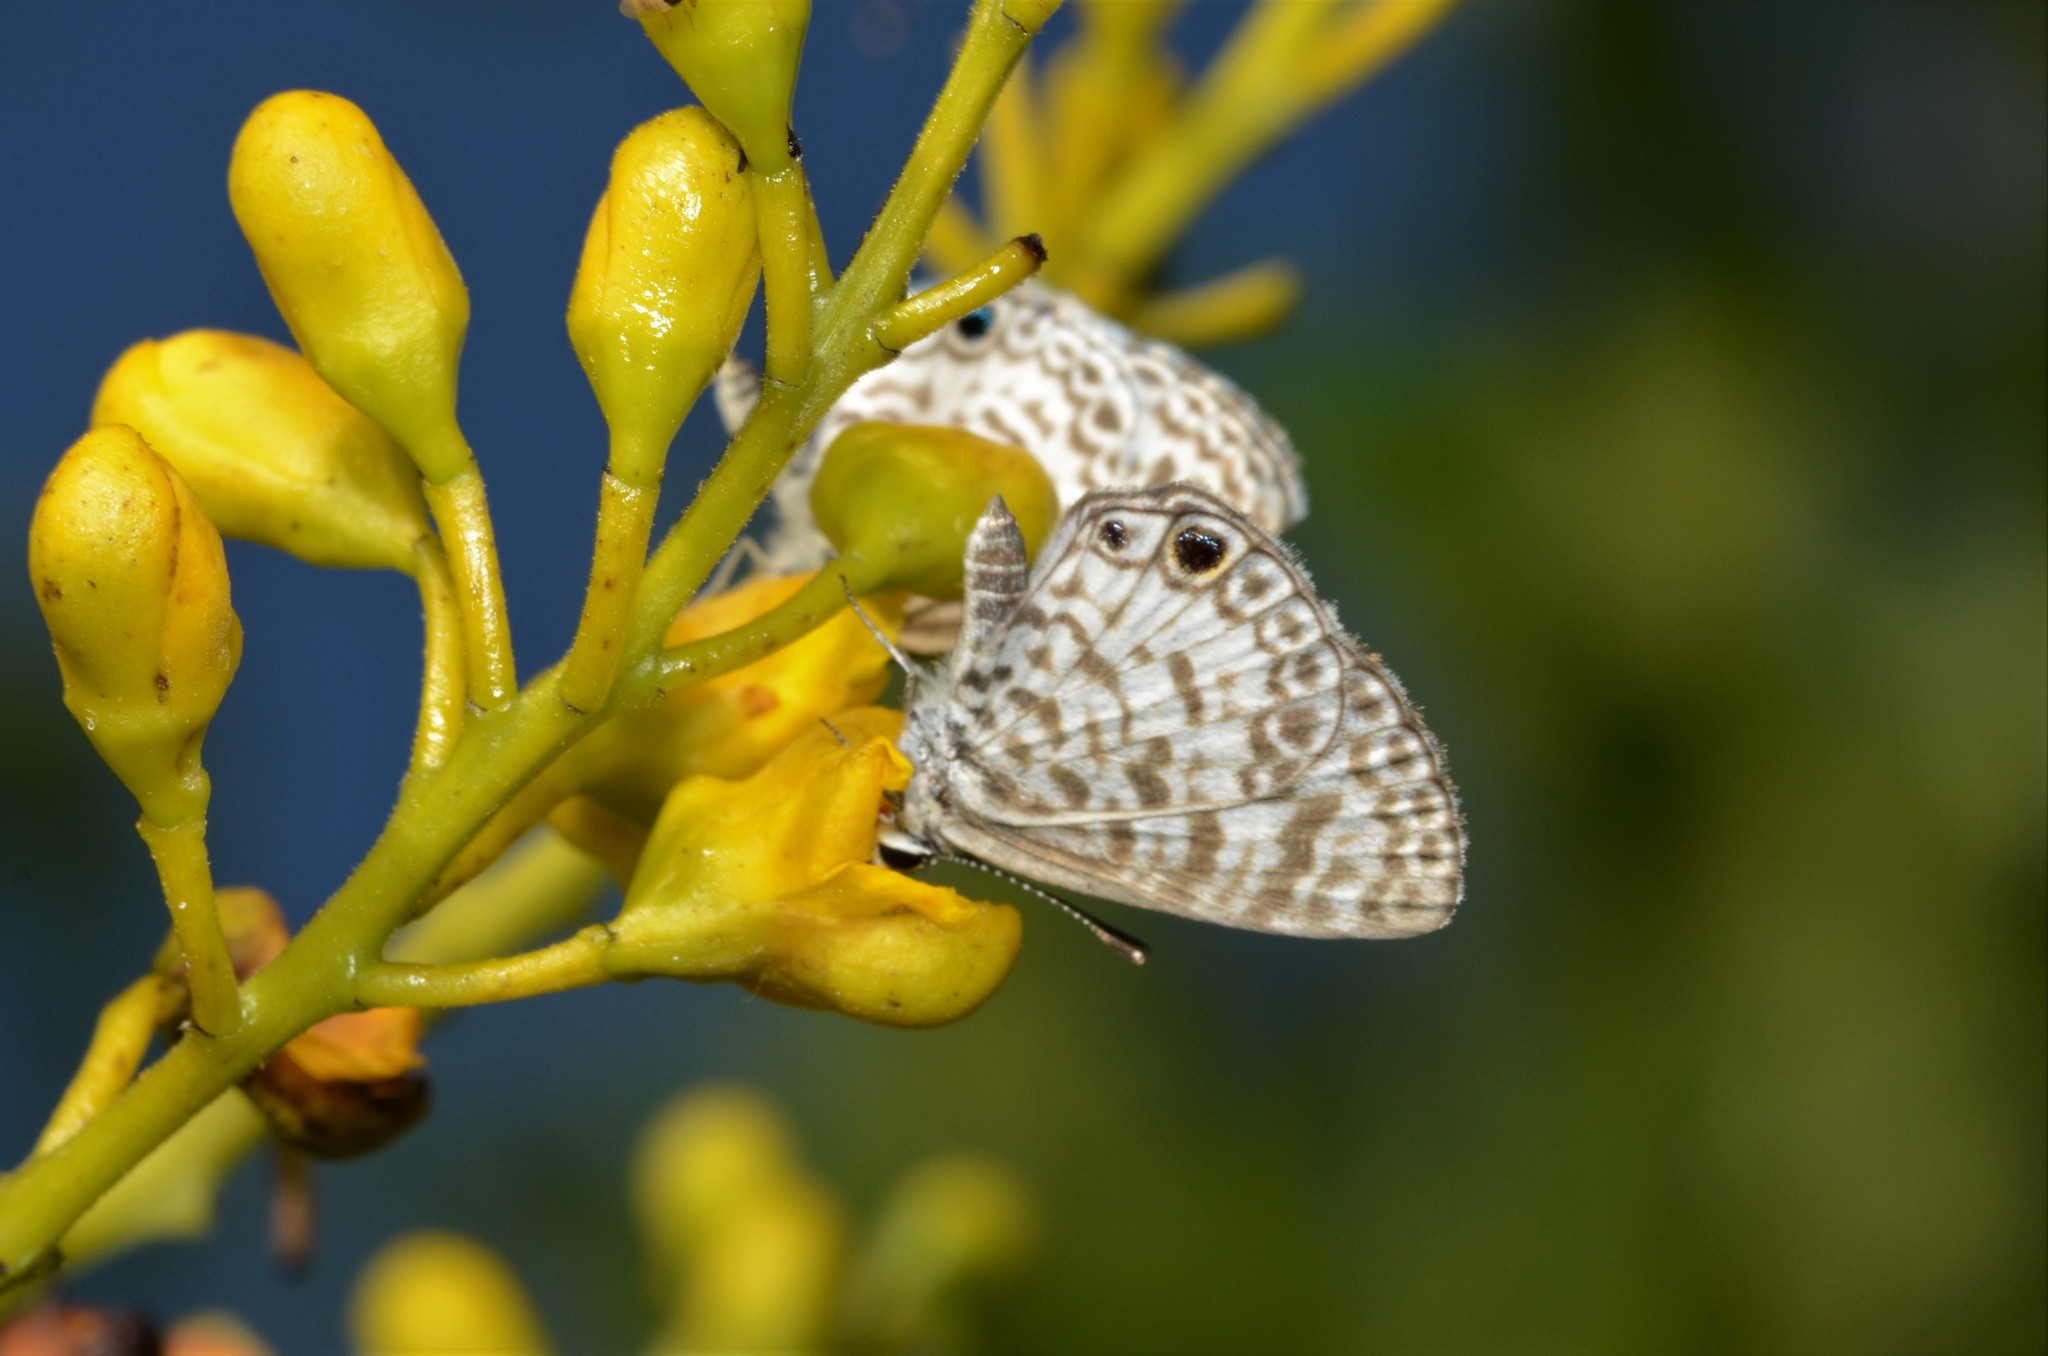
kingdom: Animalia
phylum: Arthropoda
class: Insecta
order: Lepidoptera
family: Lycaenidae
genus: Leptotes
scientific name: Leptotes theonus
